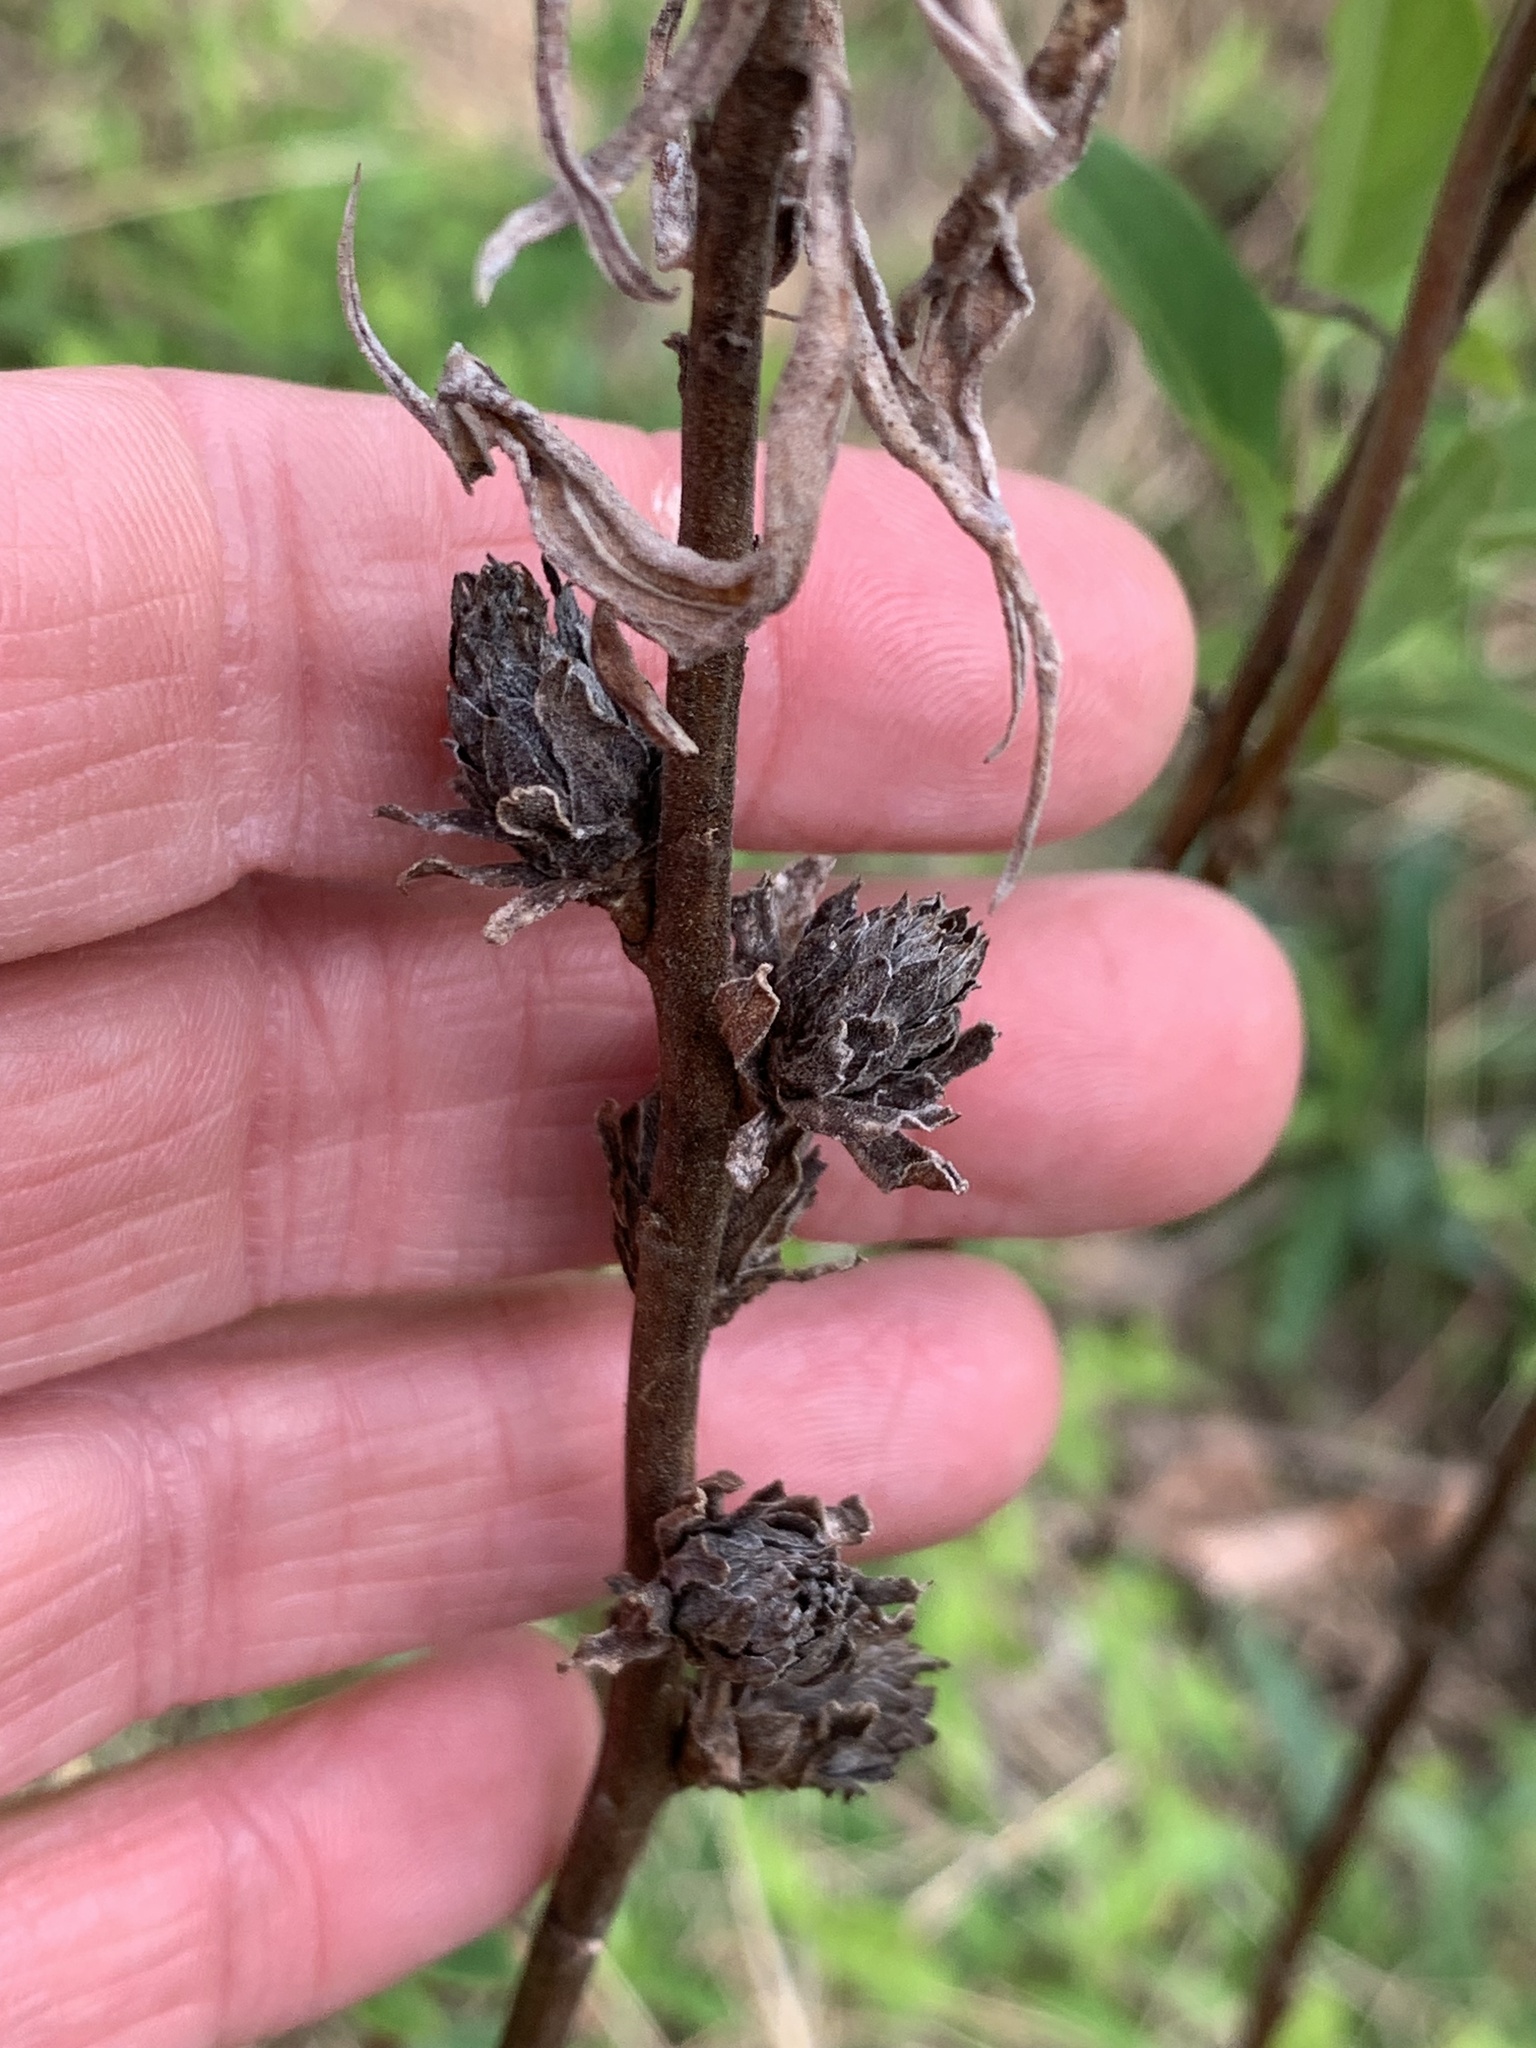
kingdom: Animalia
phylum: Arthropoda
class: Insecta
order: Diptera
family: Tephritidae
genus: Procecidochares
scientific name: Procecidochares atra
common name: Goldenrod brussels sprout gall fly
